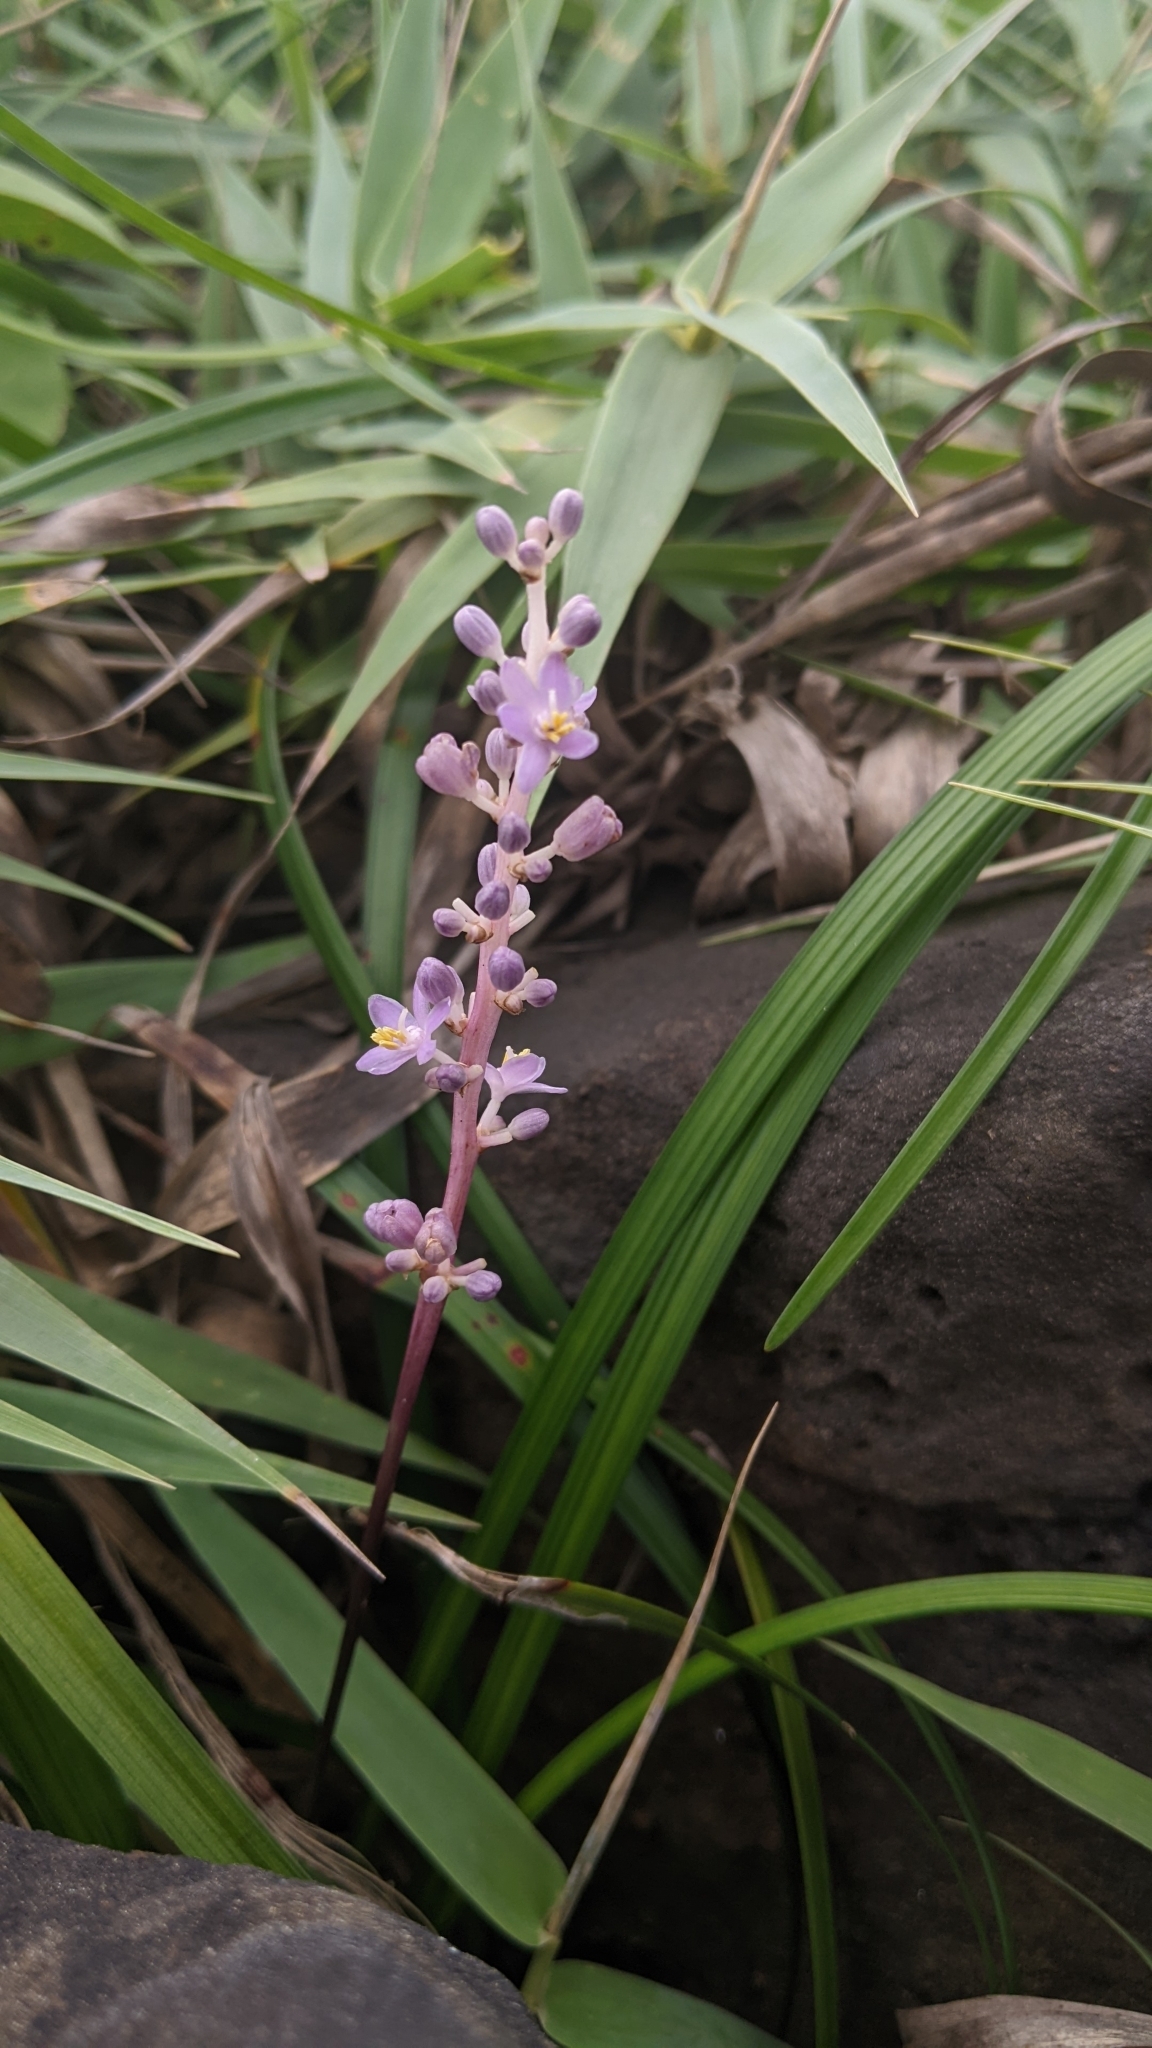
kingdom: Plantae
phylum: Tracheophyta
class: Liliopsida
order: Asparagales
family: Asparagaceae
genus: Liriope
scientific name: Liriope spicata
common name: Creeping liriope
